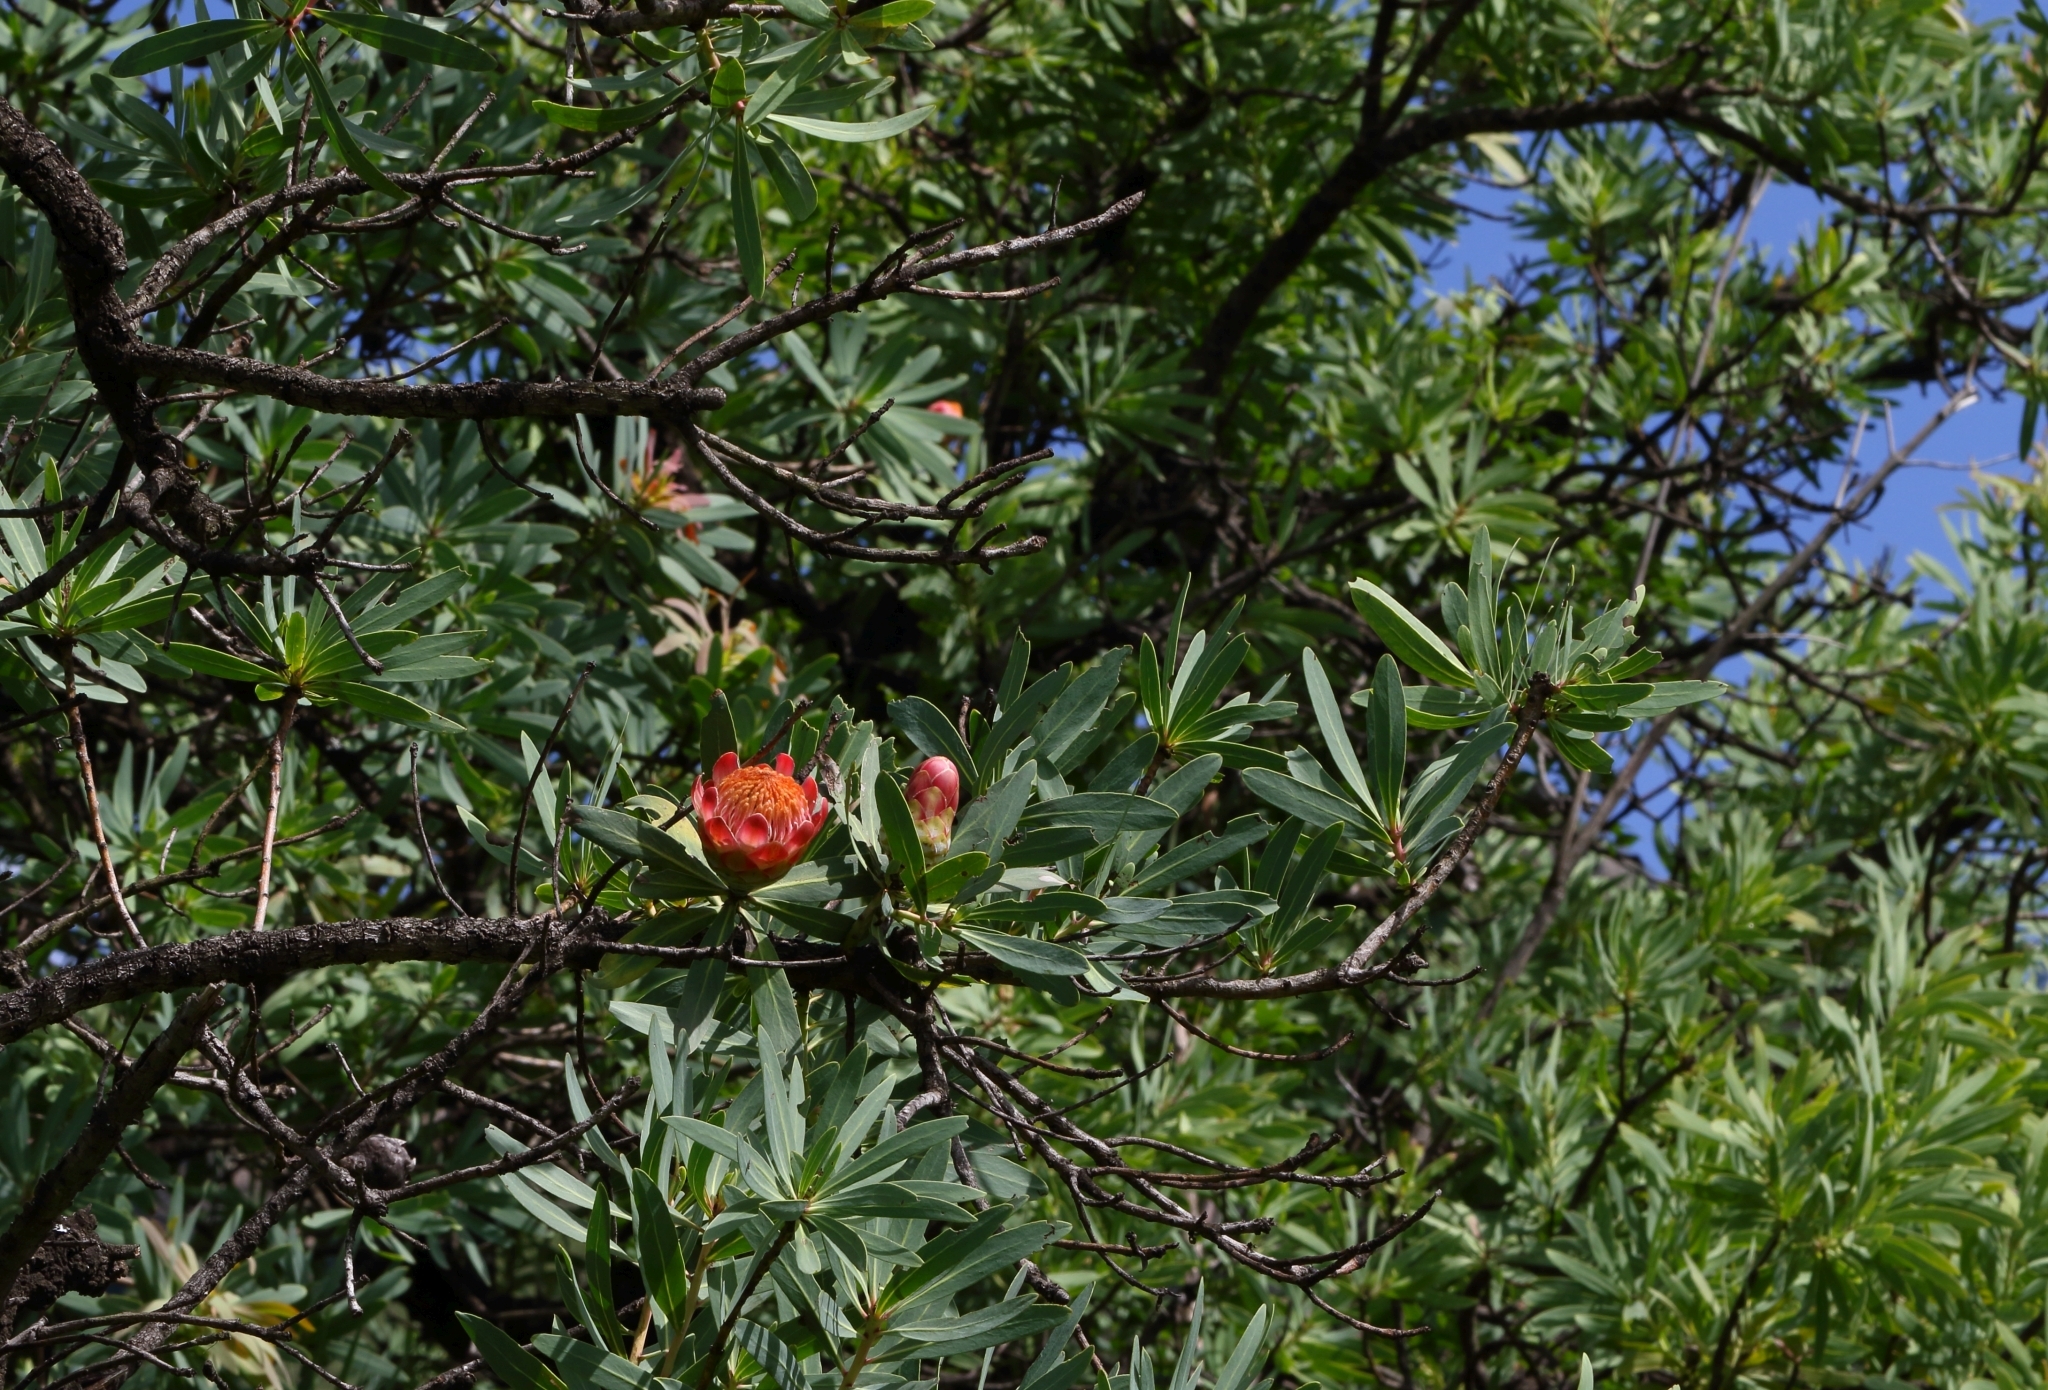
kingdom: Plantae
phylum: Tracheophyta
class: Magnoliopsida
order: Proteales
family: Proteaceae
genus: Protea
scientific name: Protea caffra
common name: Common sugarbush
